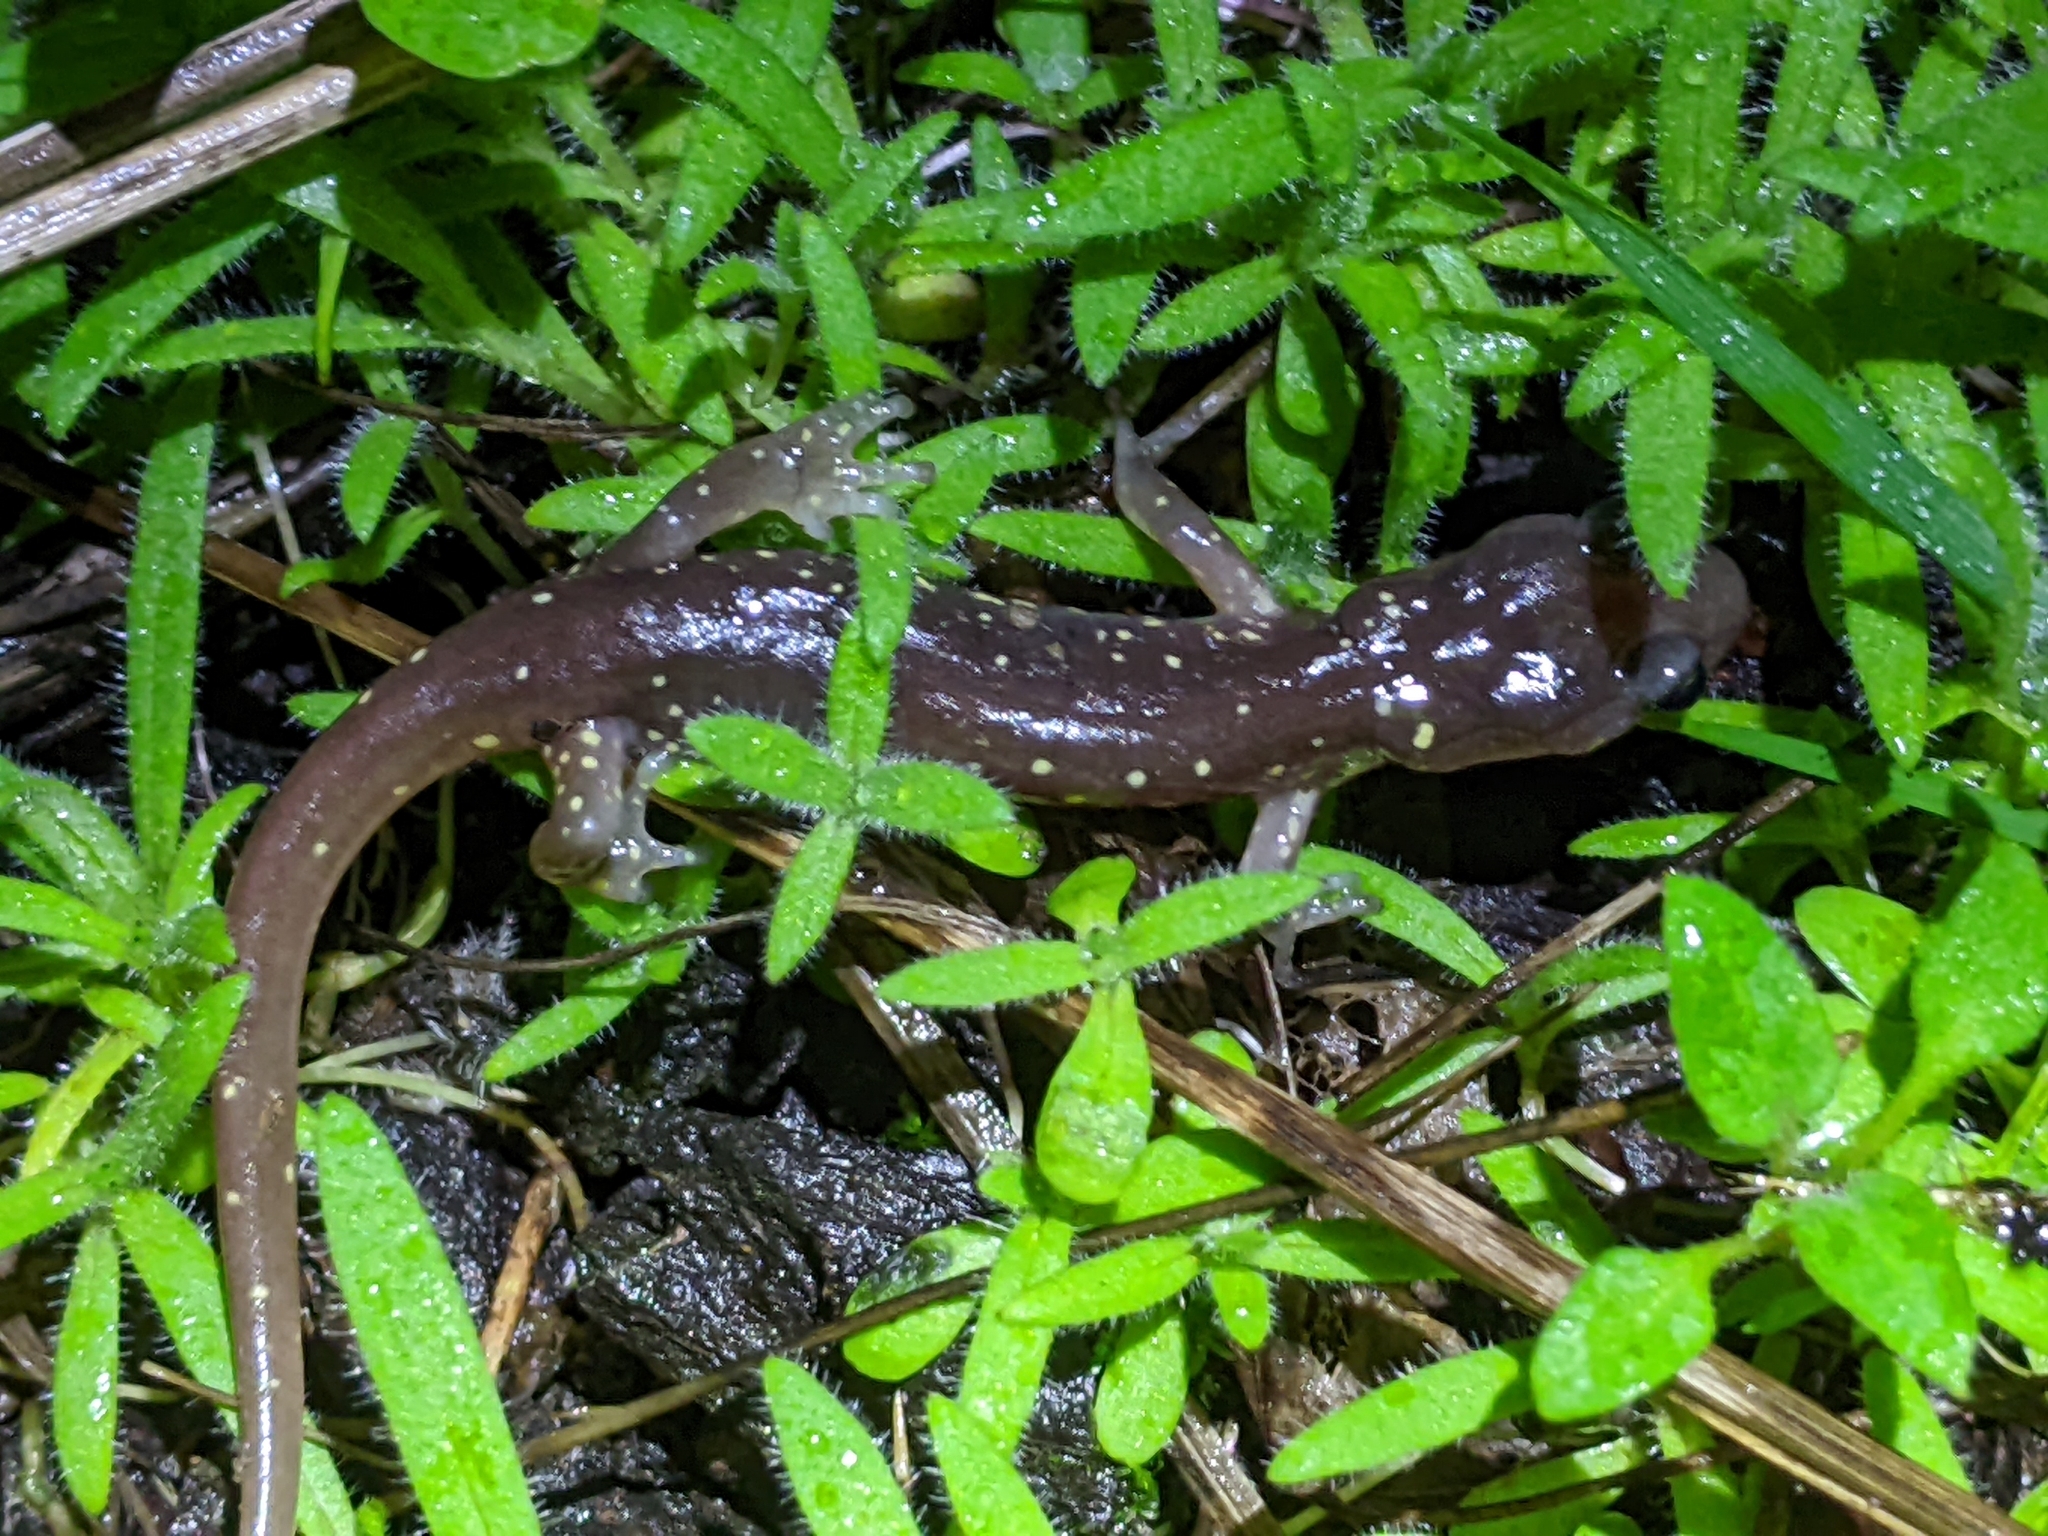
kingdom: Animalia
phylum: Chordata
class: Amphibia
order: Caudata
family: Plethodontidae
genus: Aneides
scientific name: Aneides lugubris
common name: Arboreal salamander
